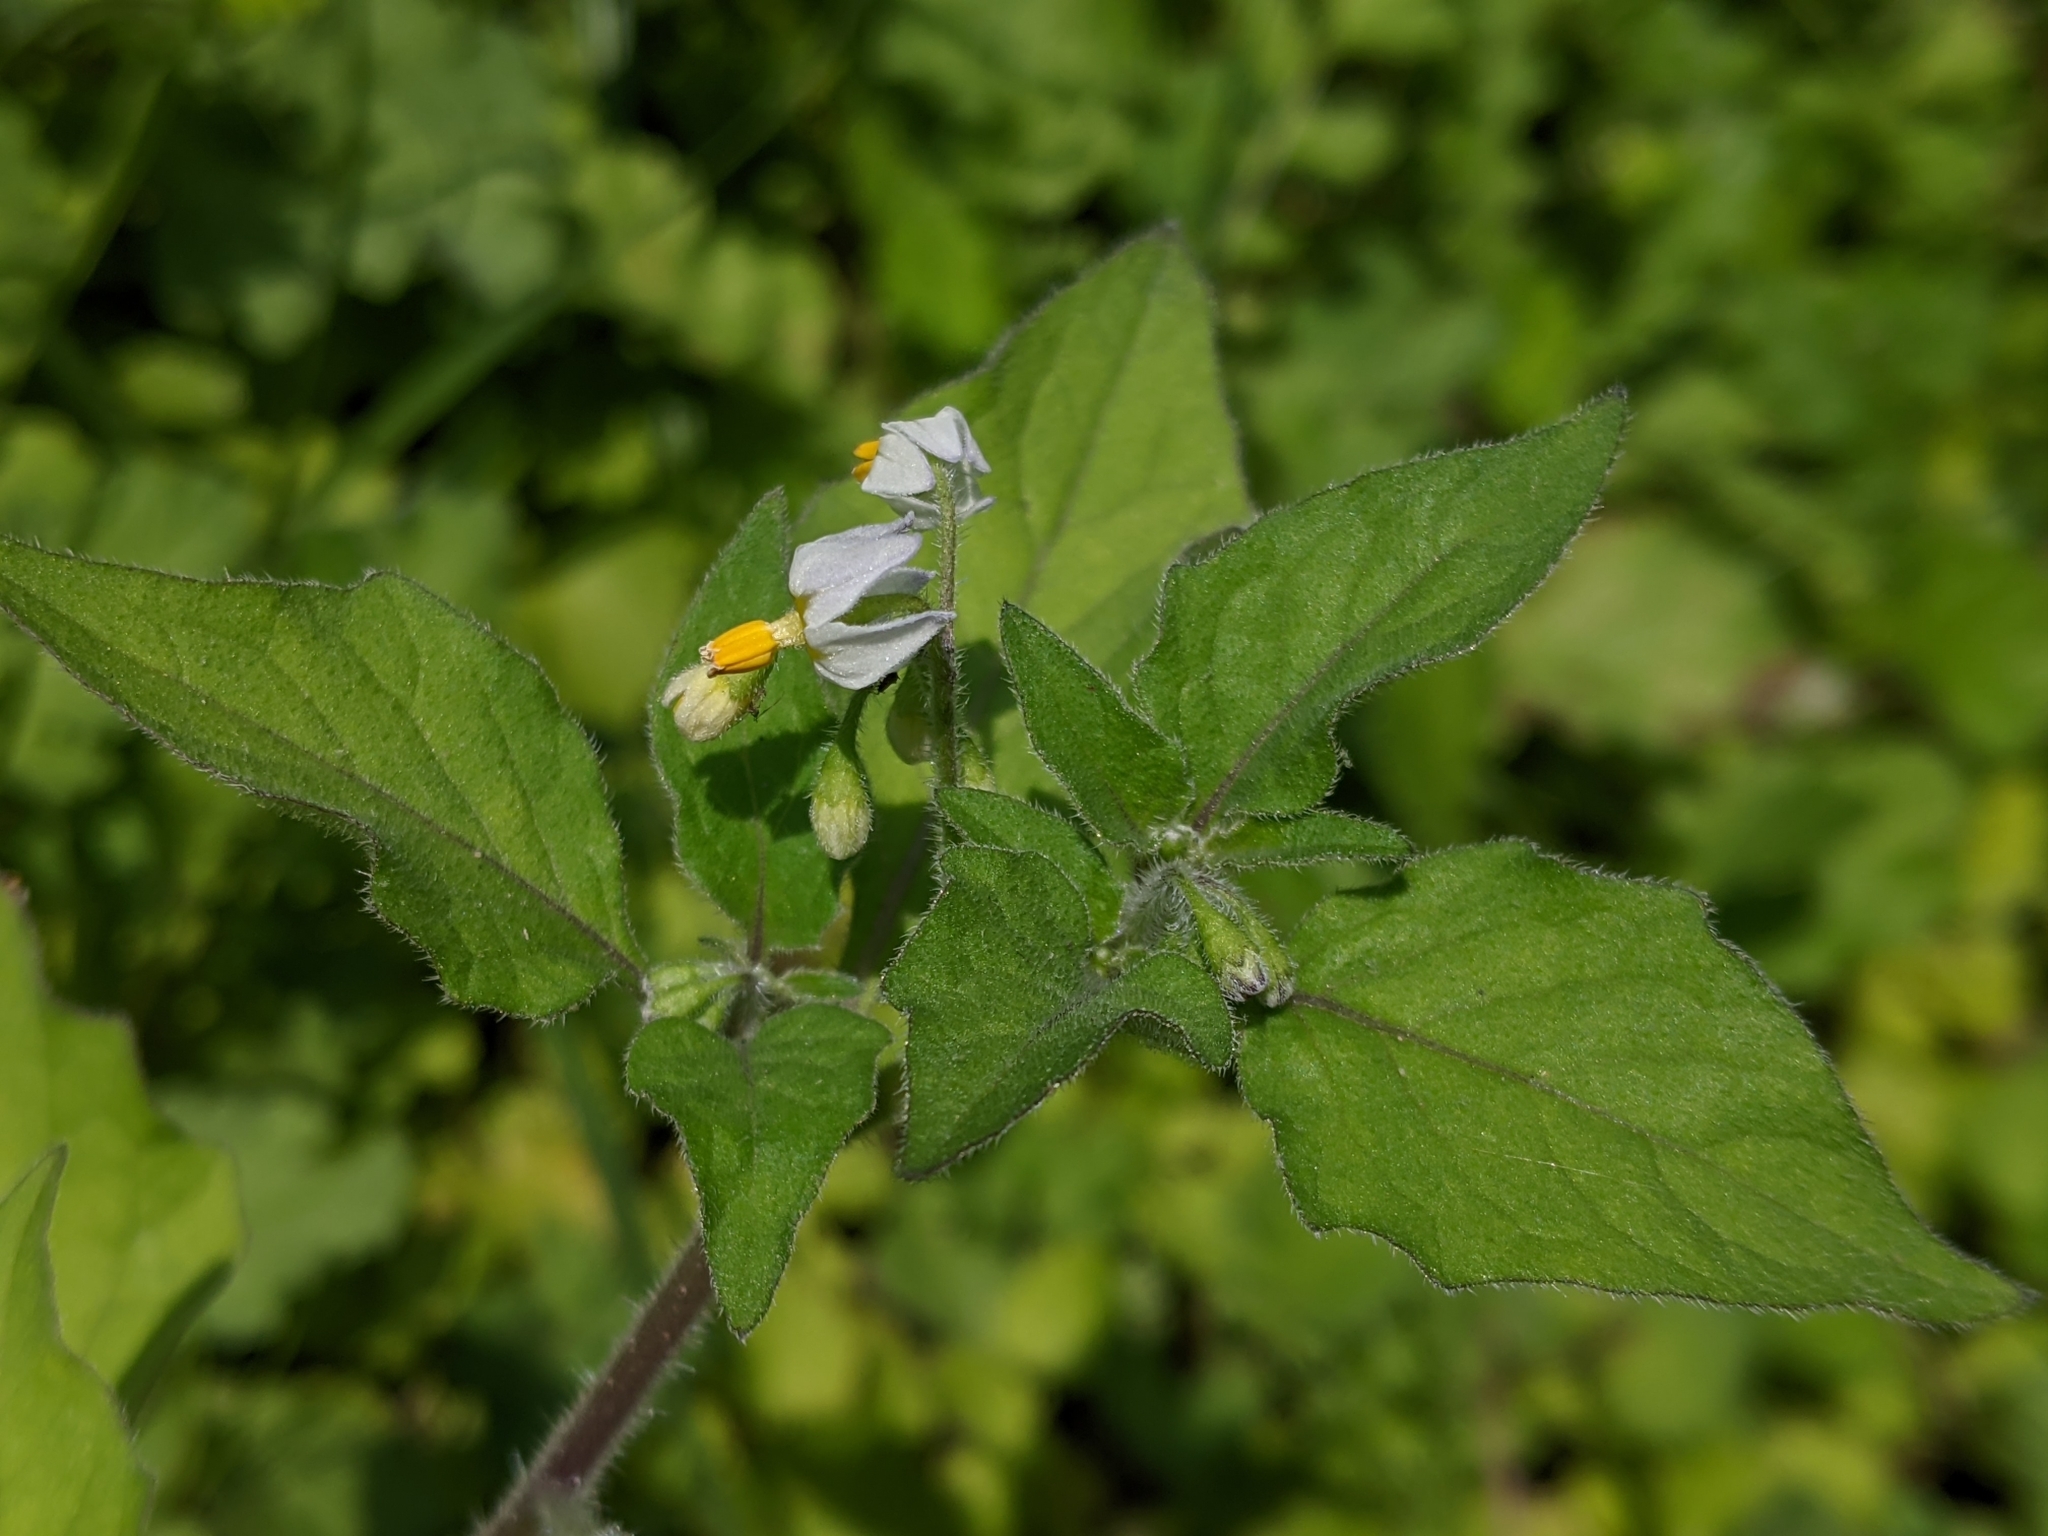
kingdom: Plantae
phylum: Tracheophyta
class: Magnoliopsida
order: Solanales
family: Solanaceae
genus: Solanum
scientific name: Solanum nigrum
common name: Black nightshade
